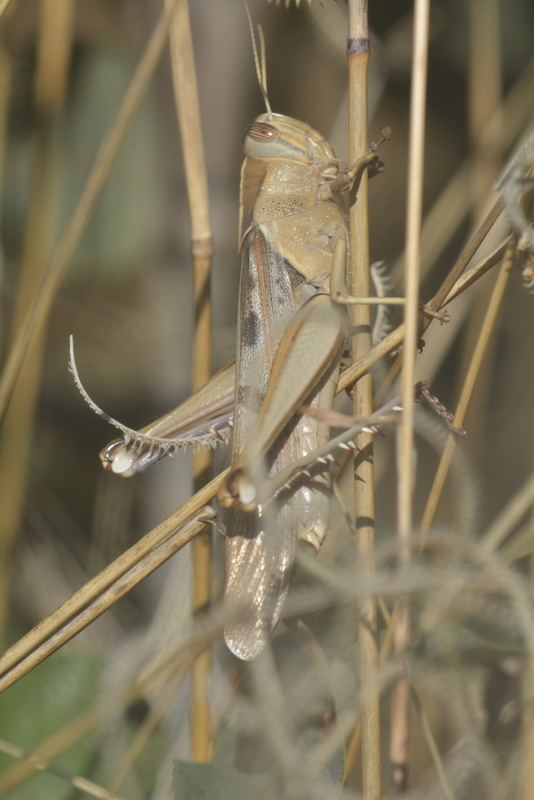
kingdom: Animalia
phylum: Arthropoda
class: Insecta
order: Orthoptera
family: Acrididae
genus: Acanthacris
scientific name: Acanthacris ruficornis
